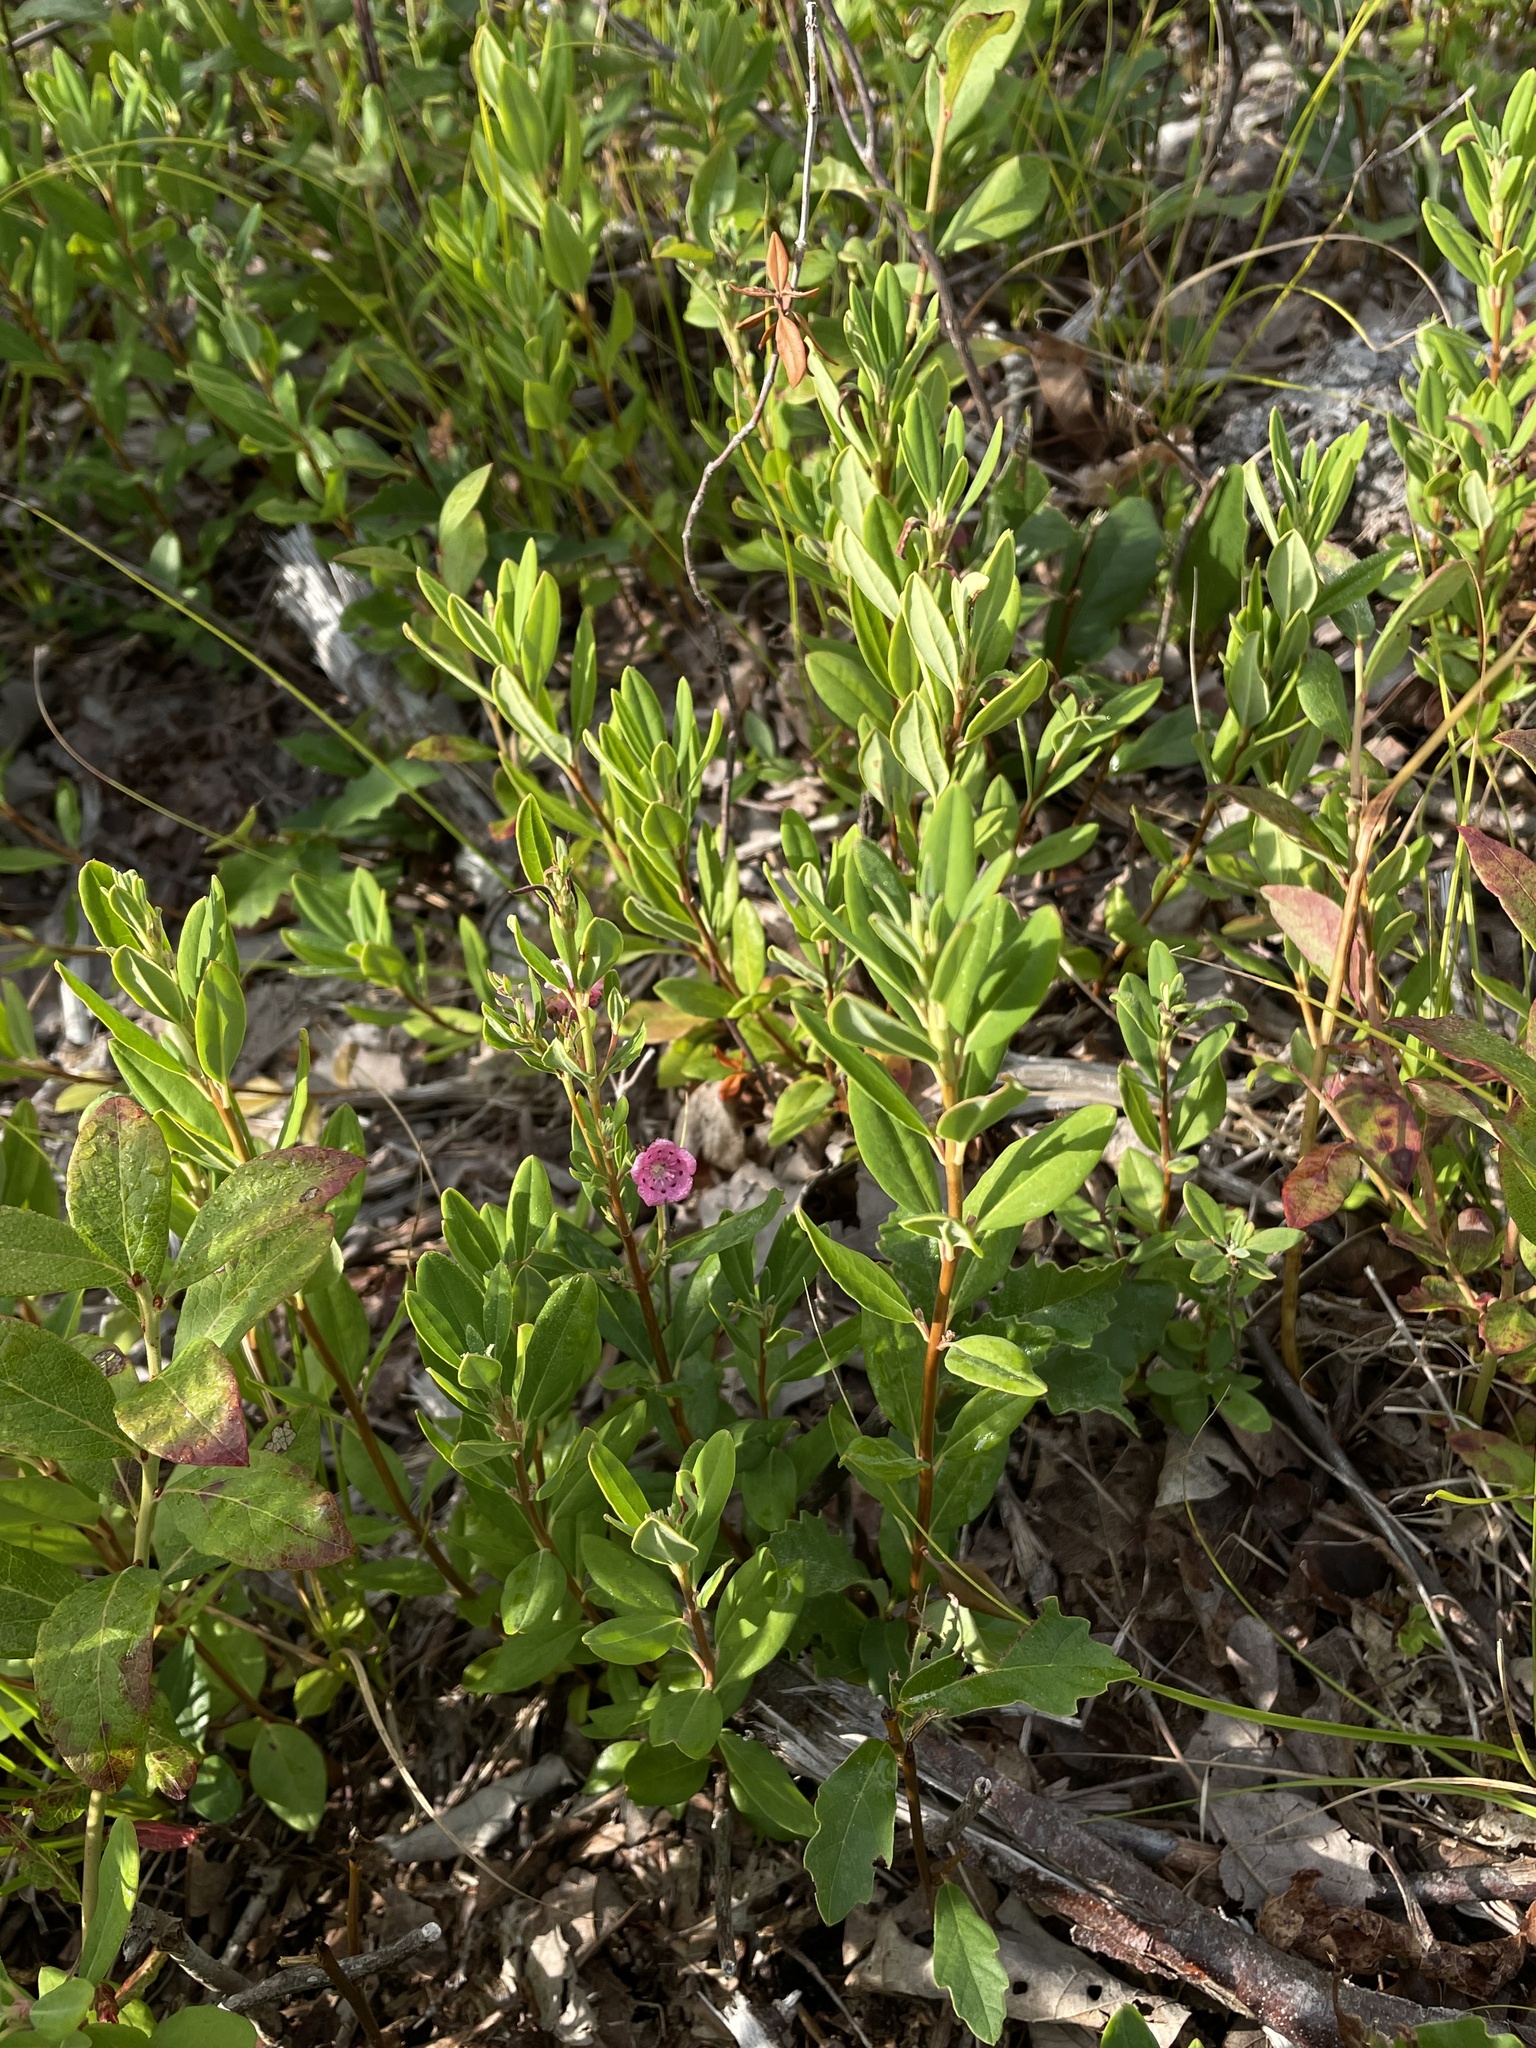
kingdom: Plantae
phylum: Tracheophyta
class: Magnoliopsida
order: Ericales
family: Ericaceae
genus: Kalmia
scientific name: Kalmia angustifolia
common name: Sheep-laurel
